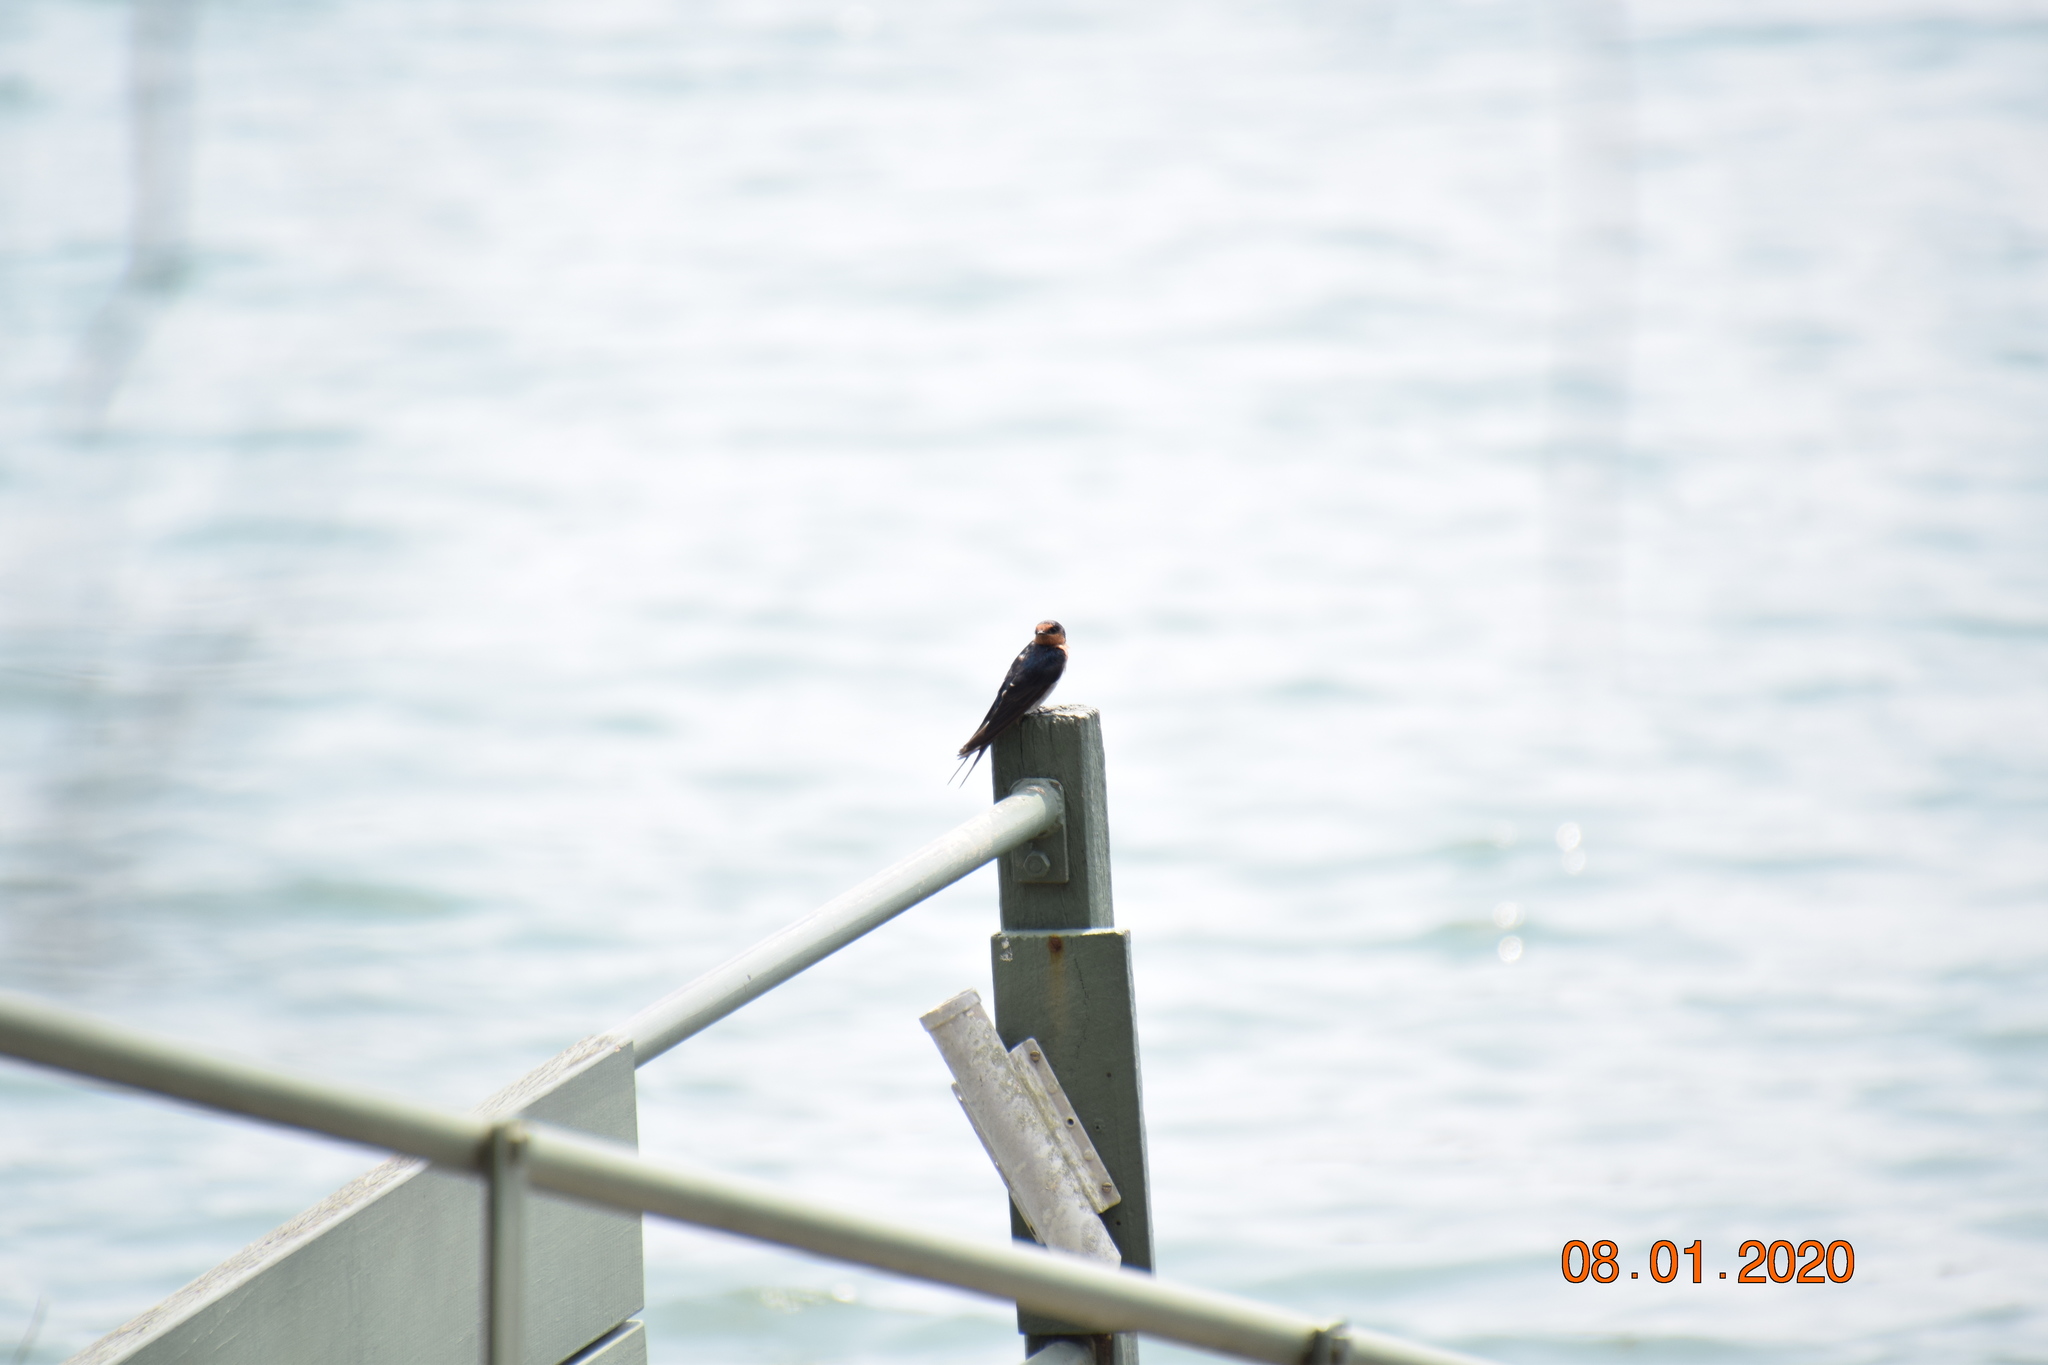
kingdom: Animalia
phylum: Chordata
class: Aves
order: Passeriformes
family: Hirundinidae
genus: Hirundo
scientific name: Hirundo neoxena
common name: Welcome swallow
